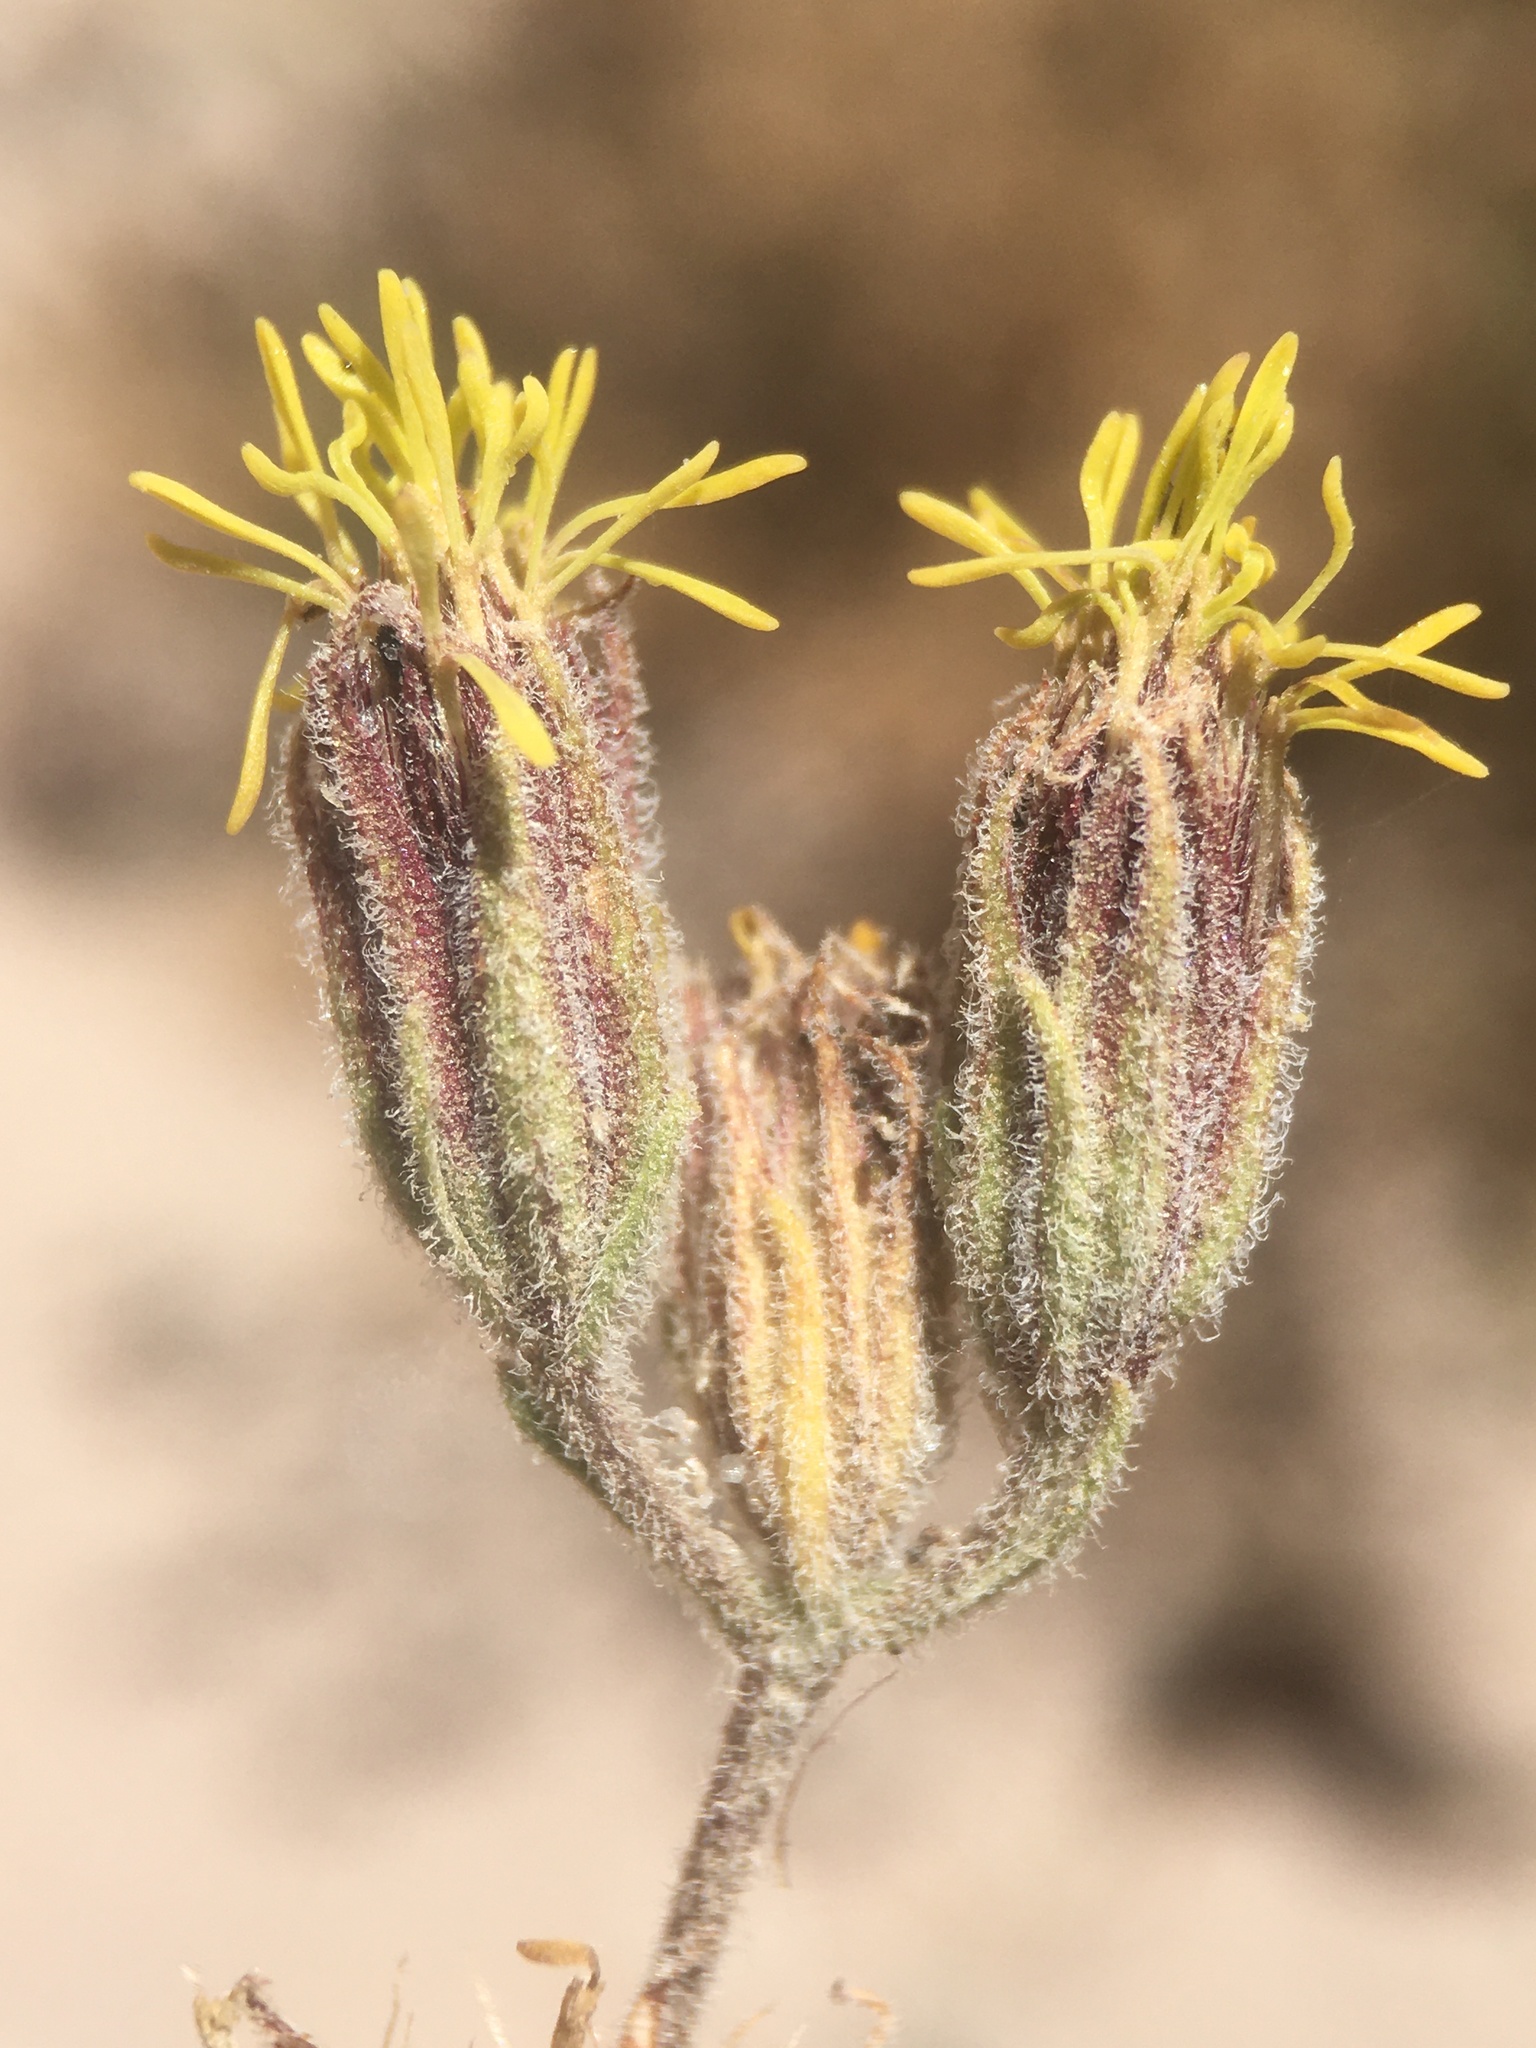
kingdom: Plantae
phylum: Tracheophyta
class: Magnoliopsida
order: Asterales
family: Asteraceae
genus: Helogyne
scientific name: Helogyne apaloidea
